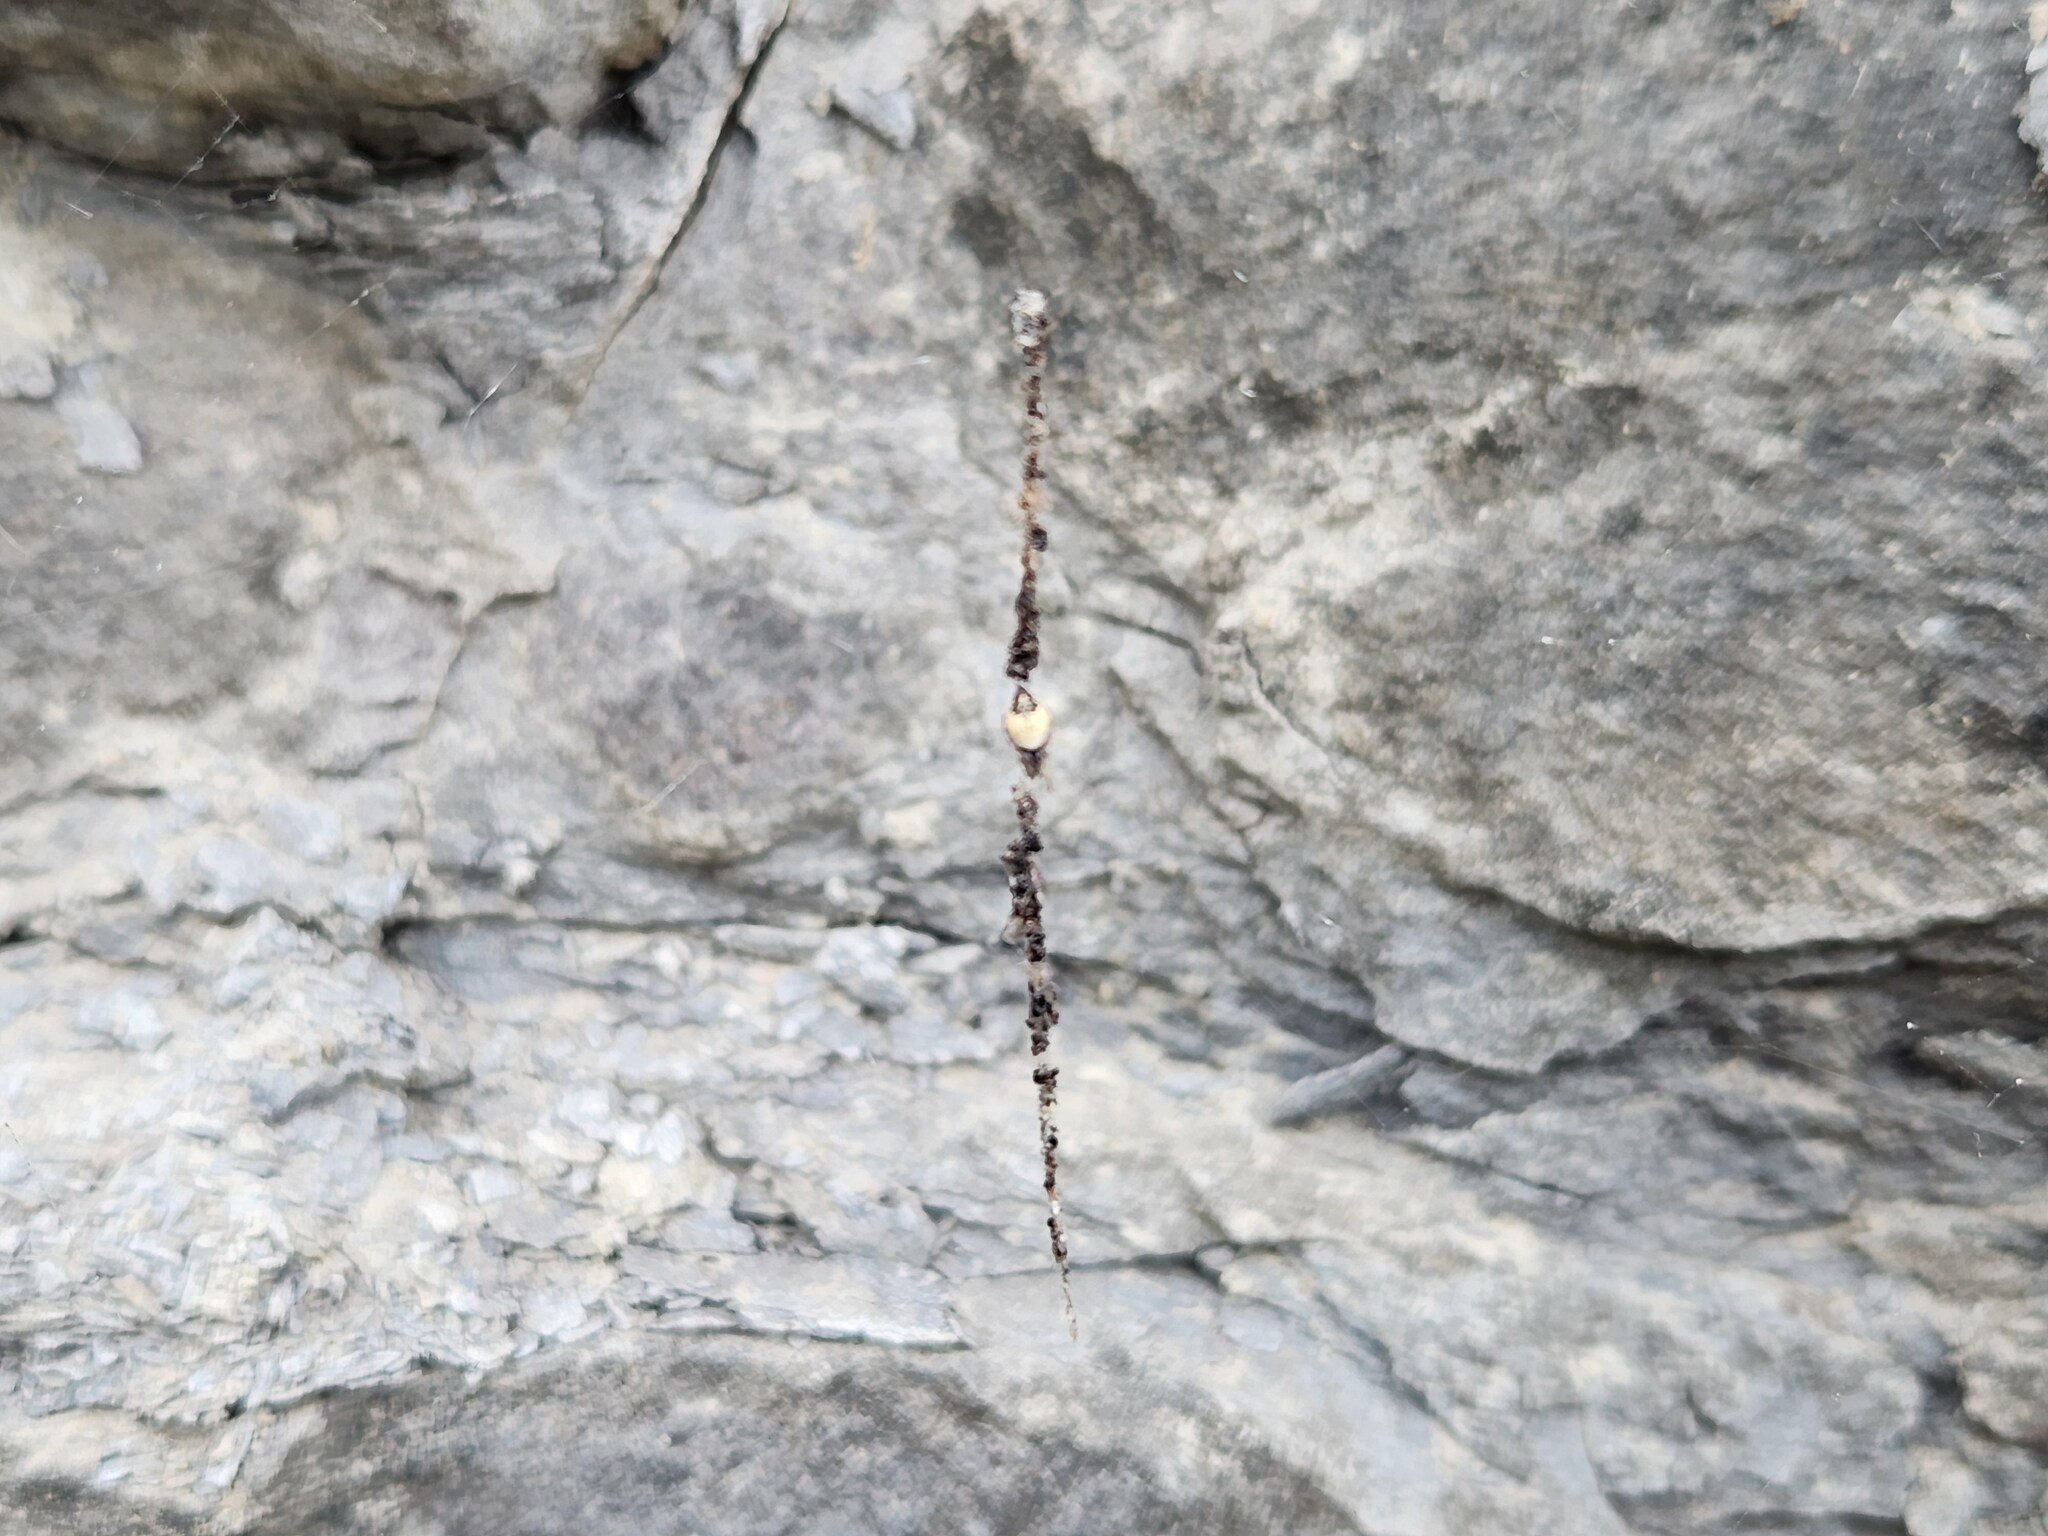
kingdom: Animalia
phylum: Arthropoda
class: Arachnida
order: Araneae
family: Araneidae
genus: Cyclosa
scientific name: Cyclosa turbinata
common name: Orb weavers
